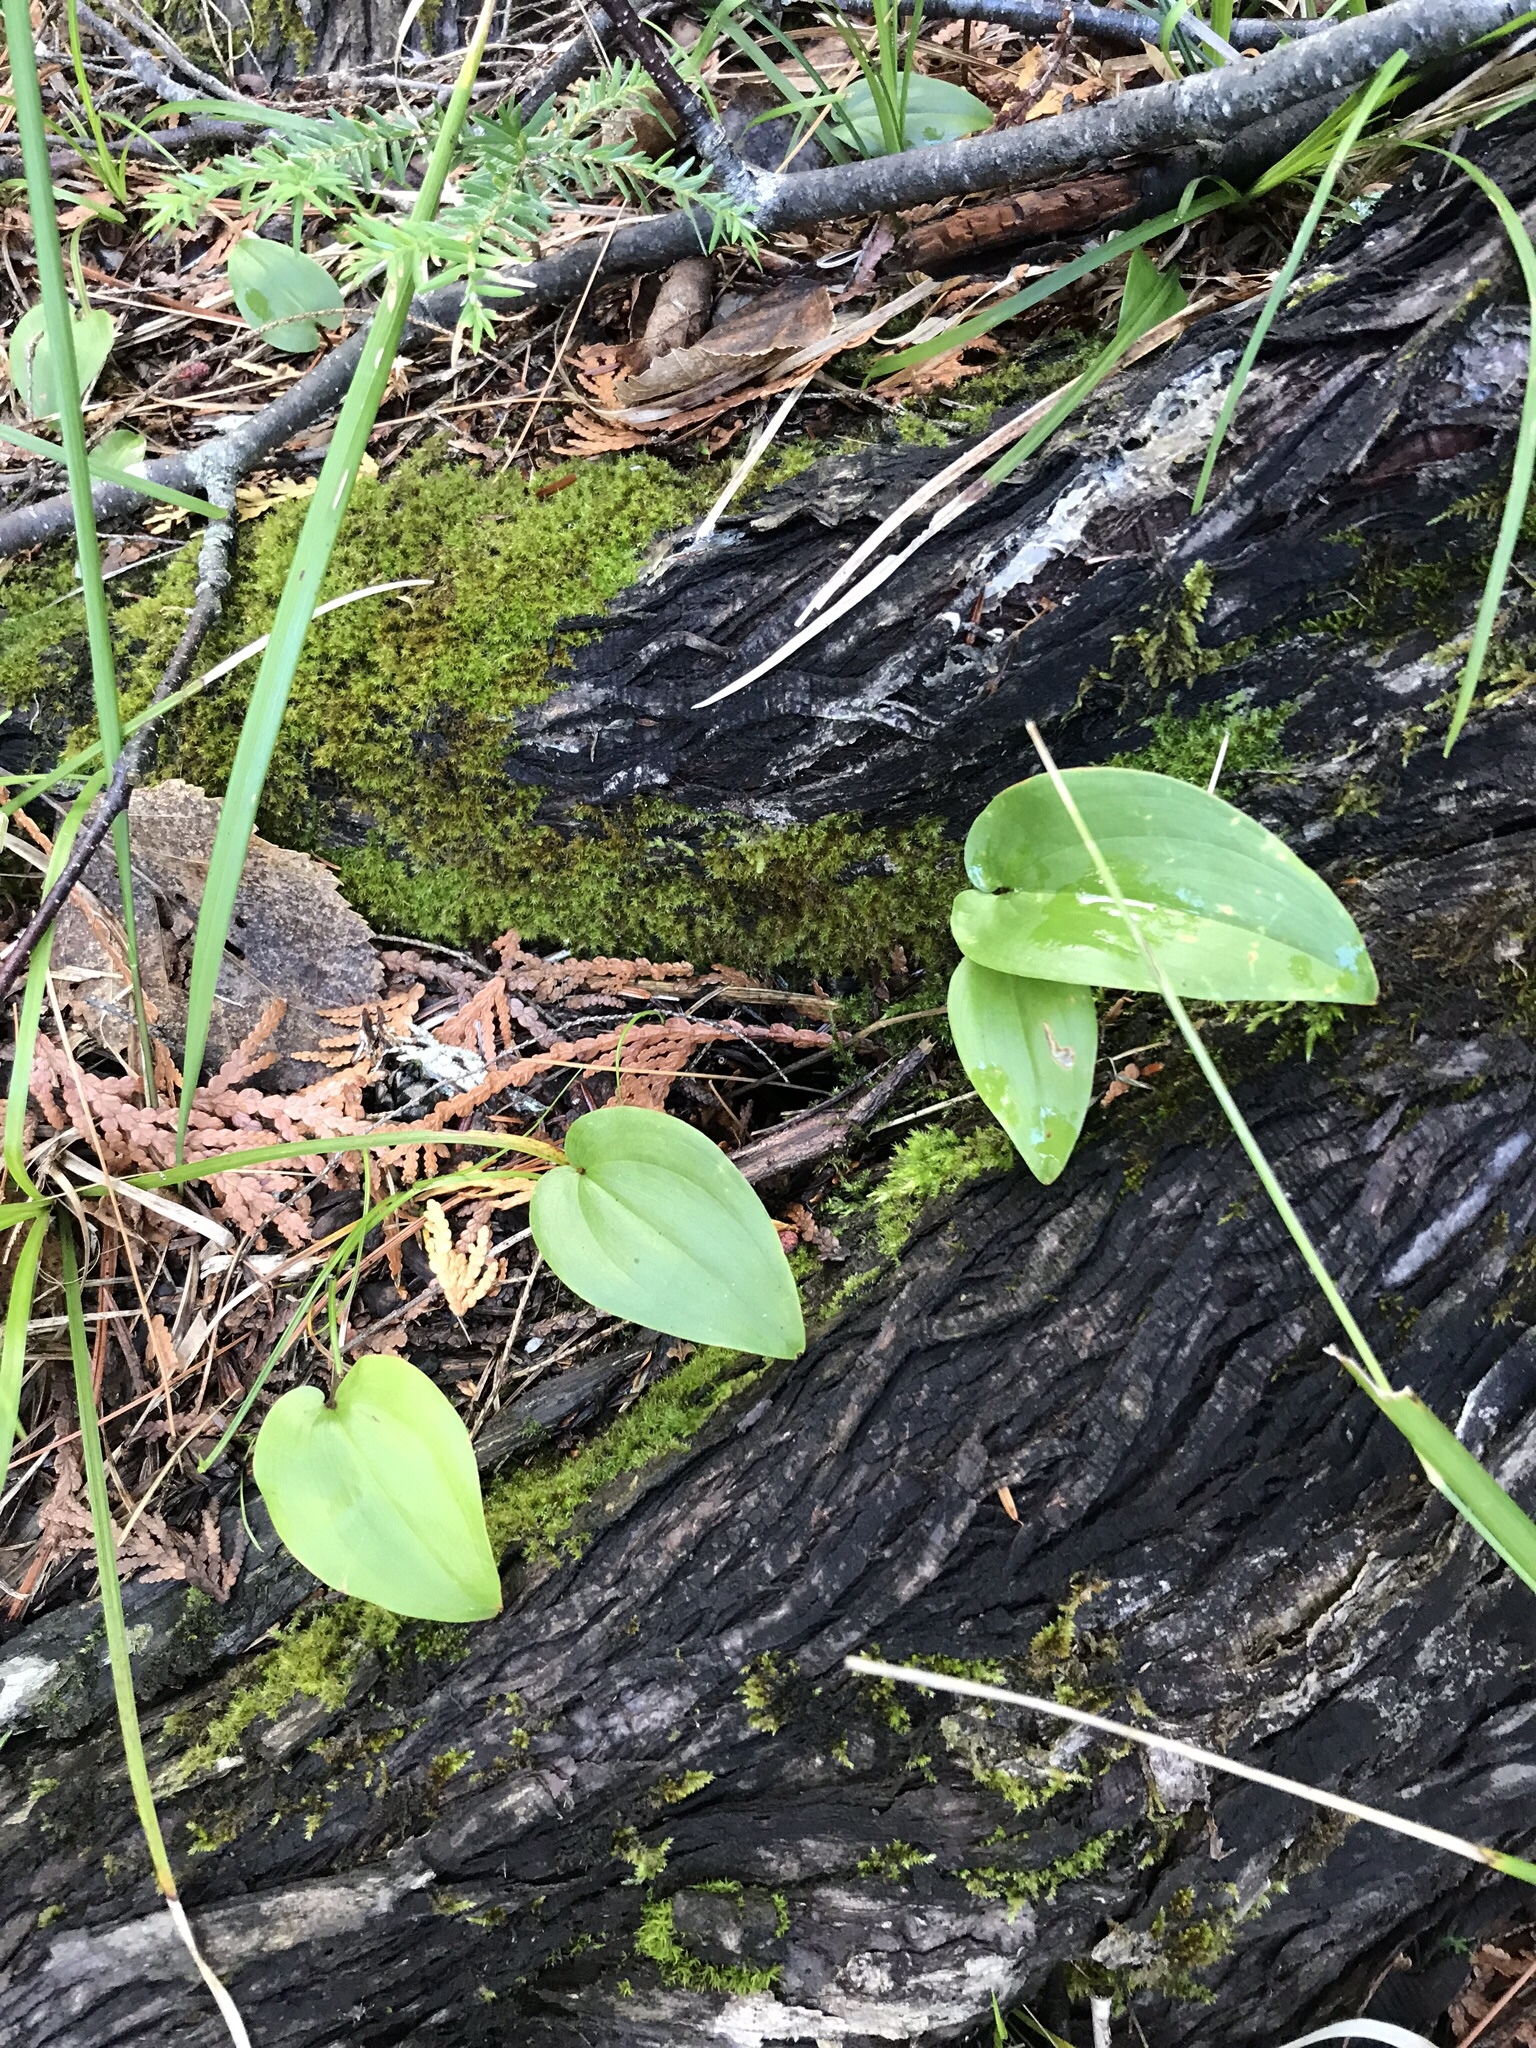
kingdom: Plantae
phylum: Tracheophyta
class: Liliopsida
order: Asparagales
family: Asparagaceae
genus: Maianthemum
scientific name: Maianthemum canadense
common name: False lily-of-the-valley
